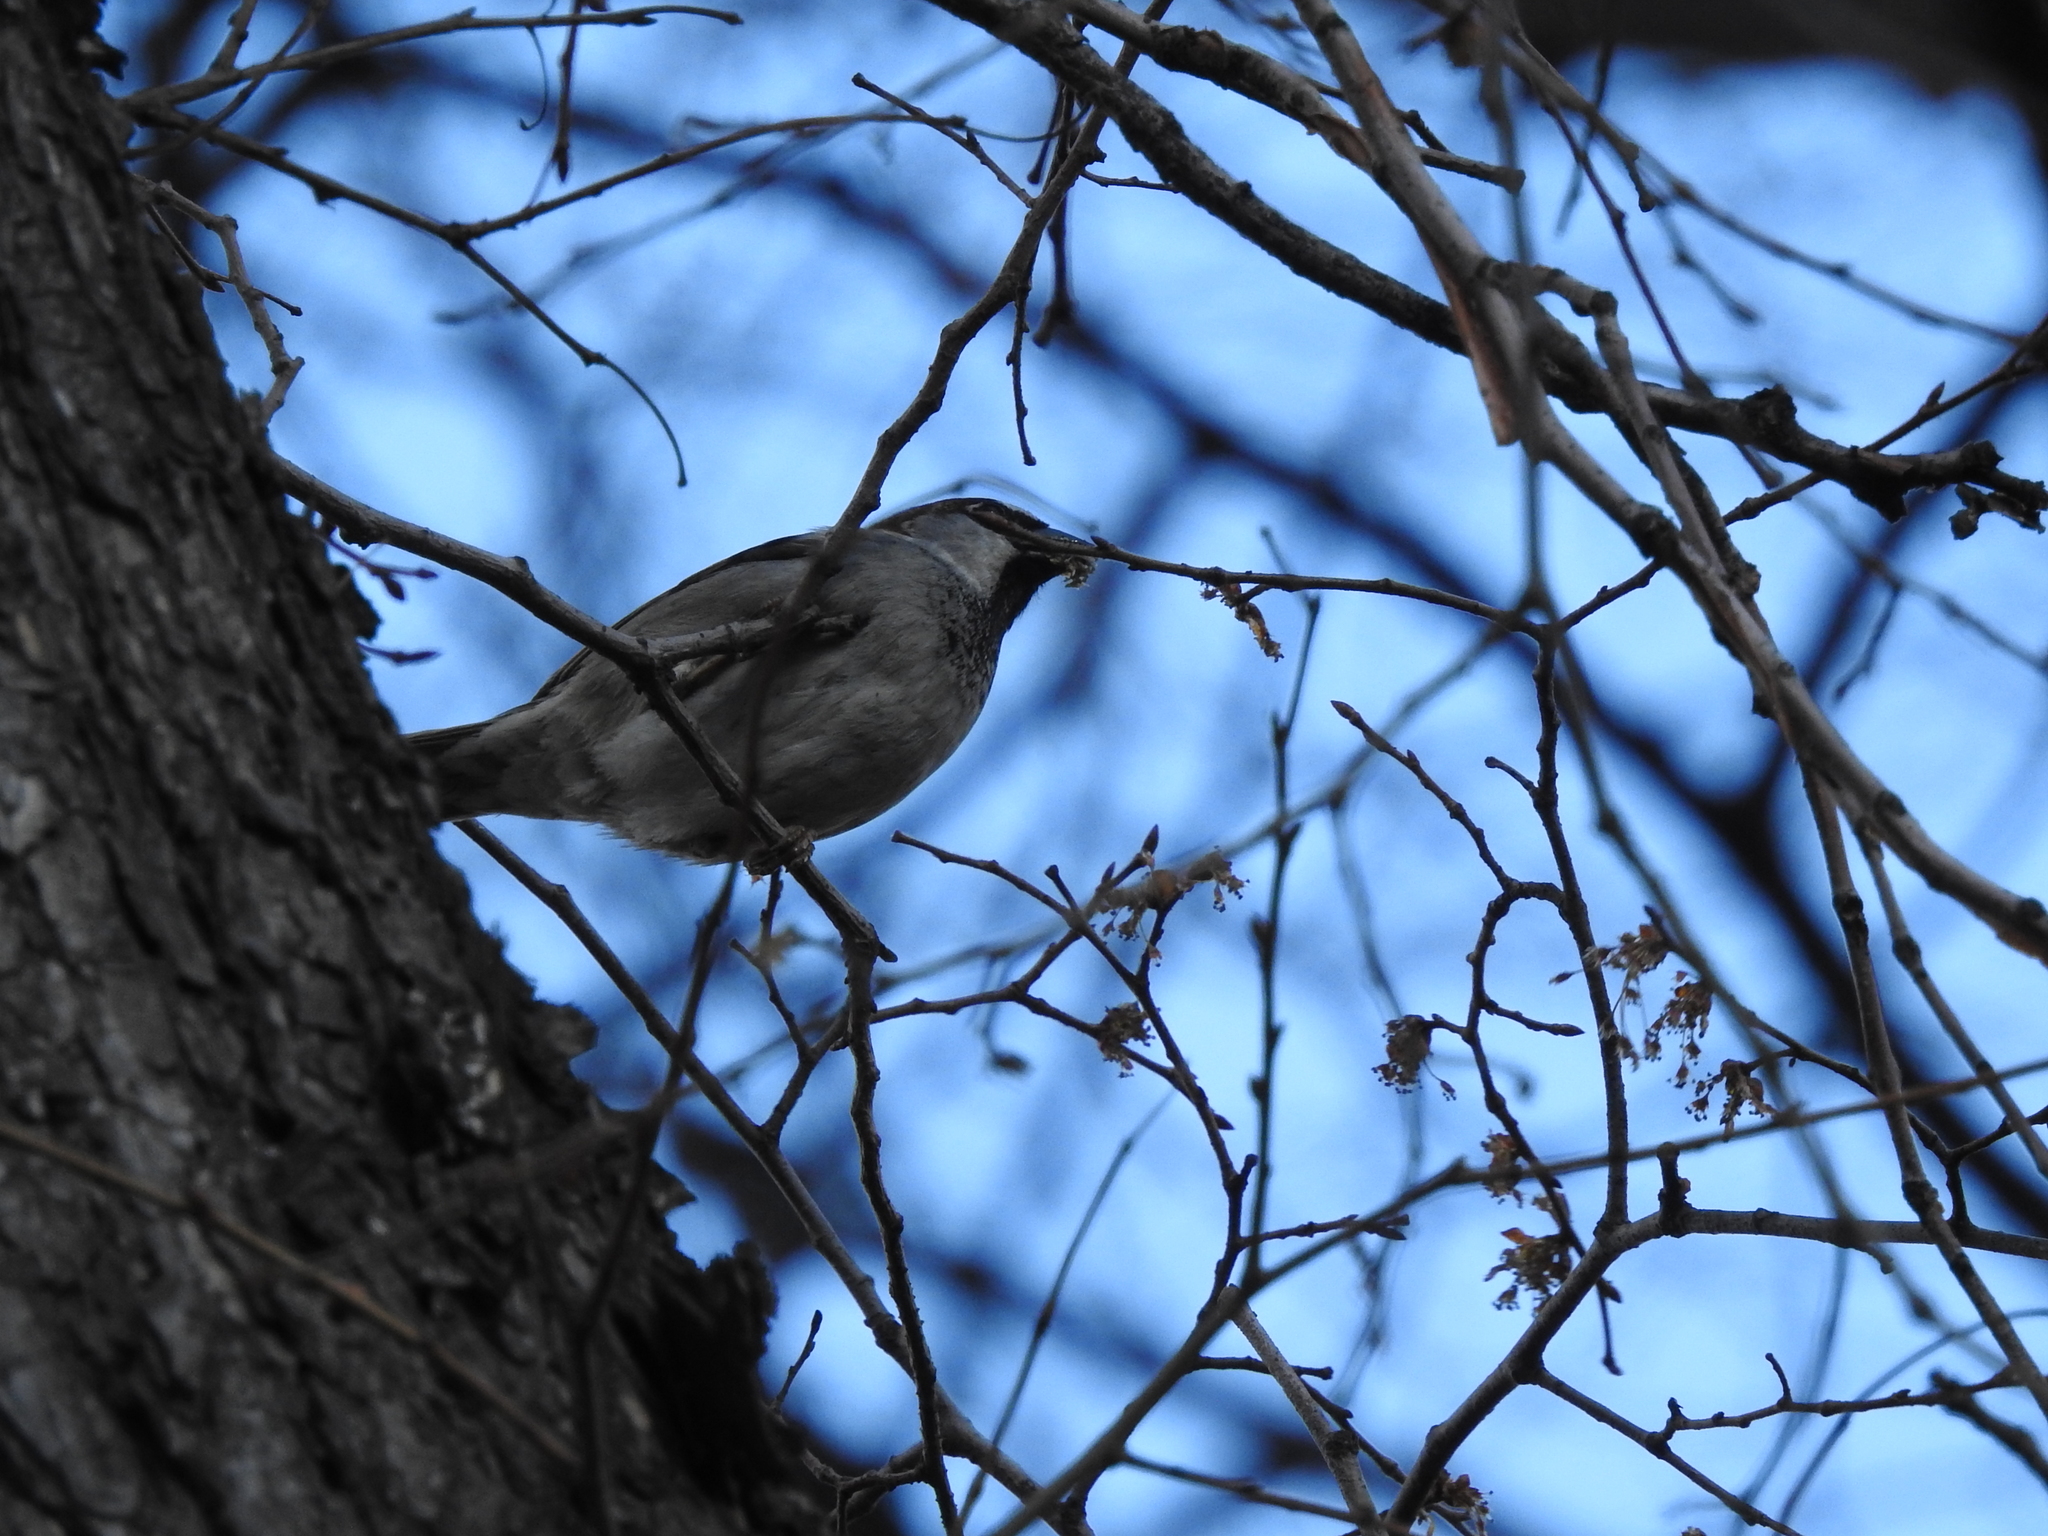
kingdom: Animalia
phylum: Chordata
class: Aves
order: Passeriformes
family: Passeridae
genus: Passer
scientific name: Passer domesticus
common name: House sparrow
